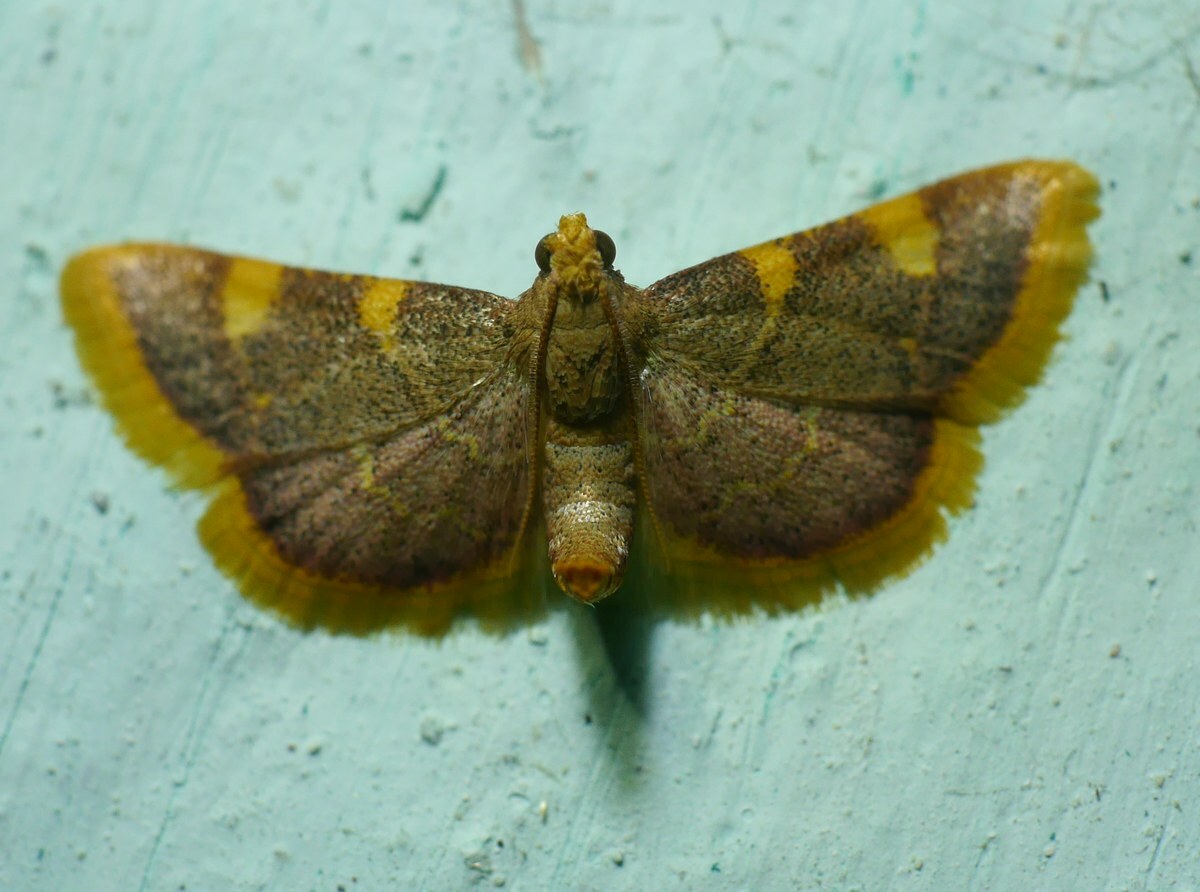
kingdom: Animalia
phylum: Arthropoda
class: Insecta
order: Lepidoptera
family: Pyralidae
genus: Hypsopygia
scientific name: Hypsopygia costalis
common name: Gold triangle
